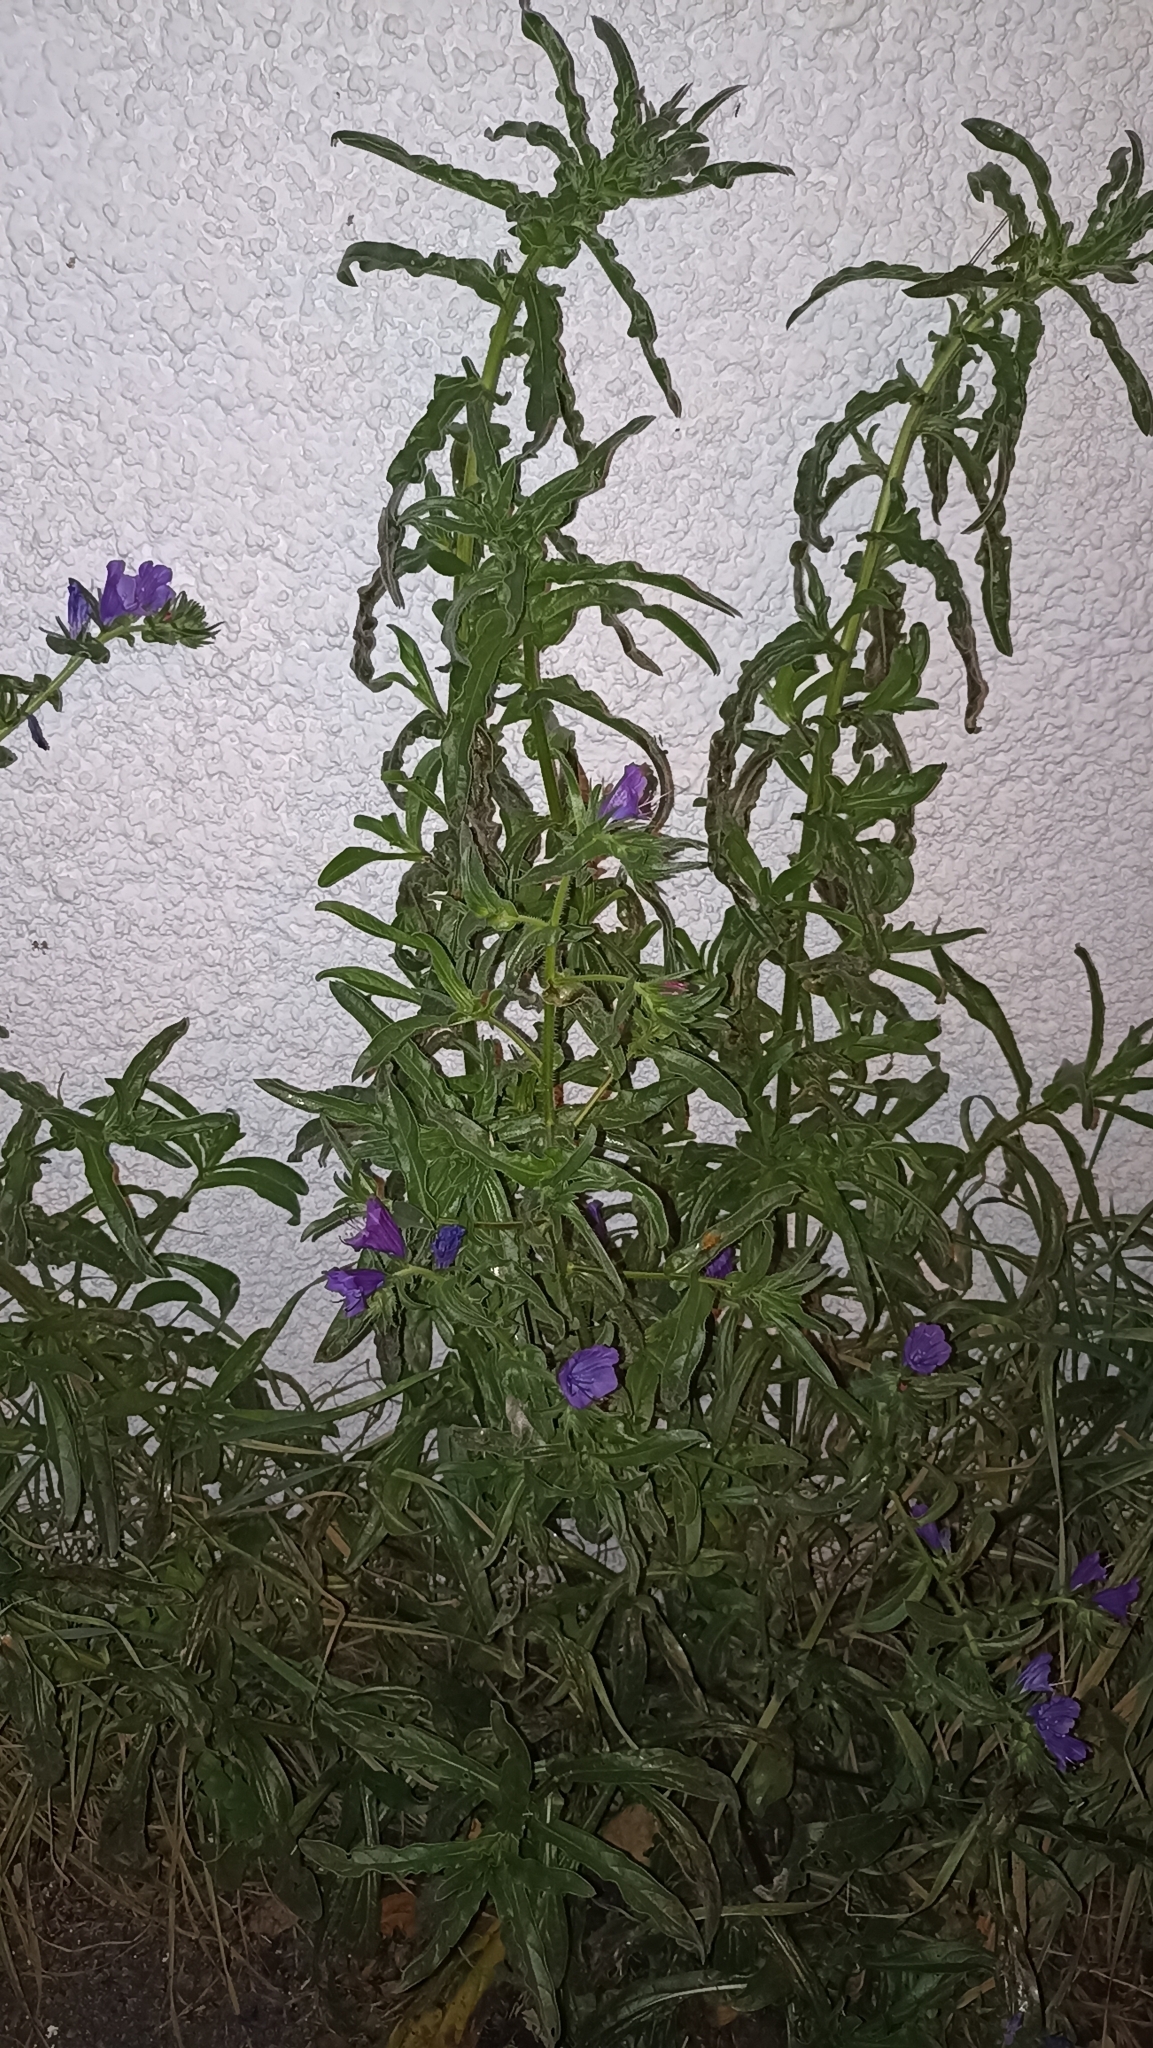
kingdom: Plantae
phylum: Tracheophyta
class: Magnoliopsida
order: Boraginales
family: Boraginaceae
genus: Echium
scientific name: Echium plantagineum
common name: Purple viper's-bugloss
